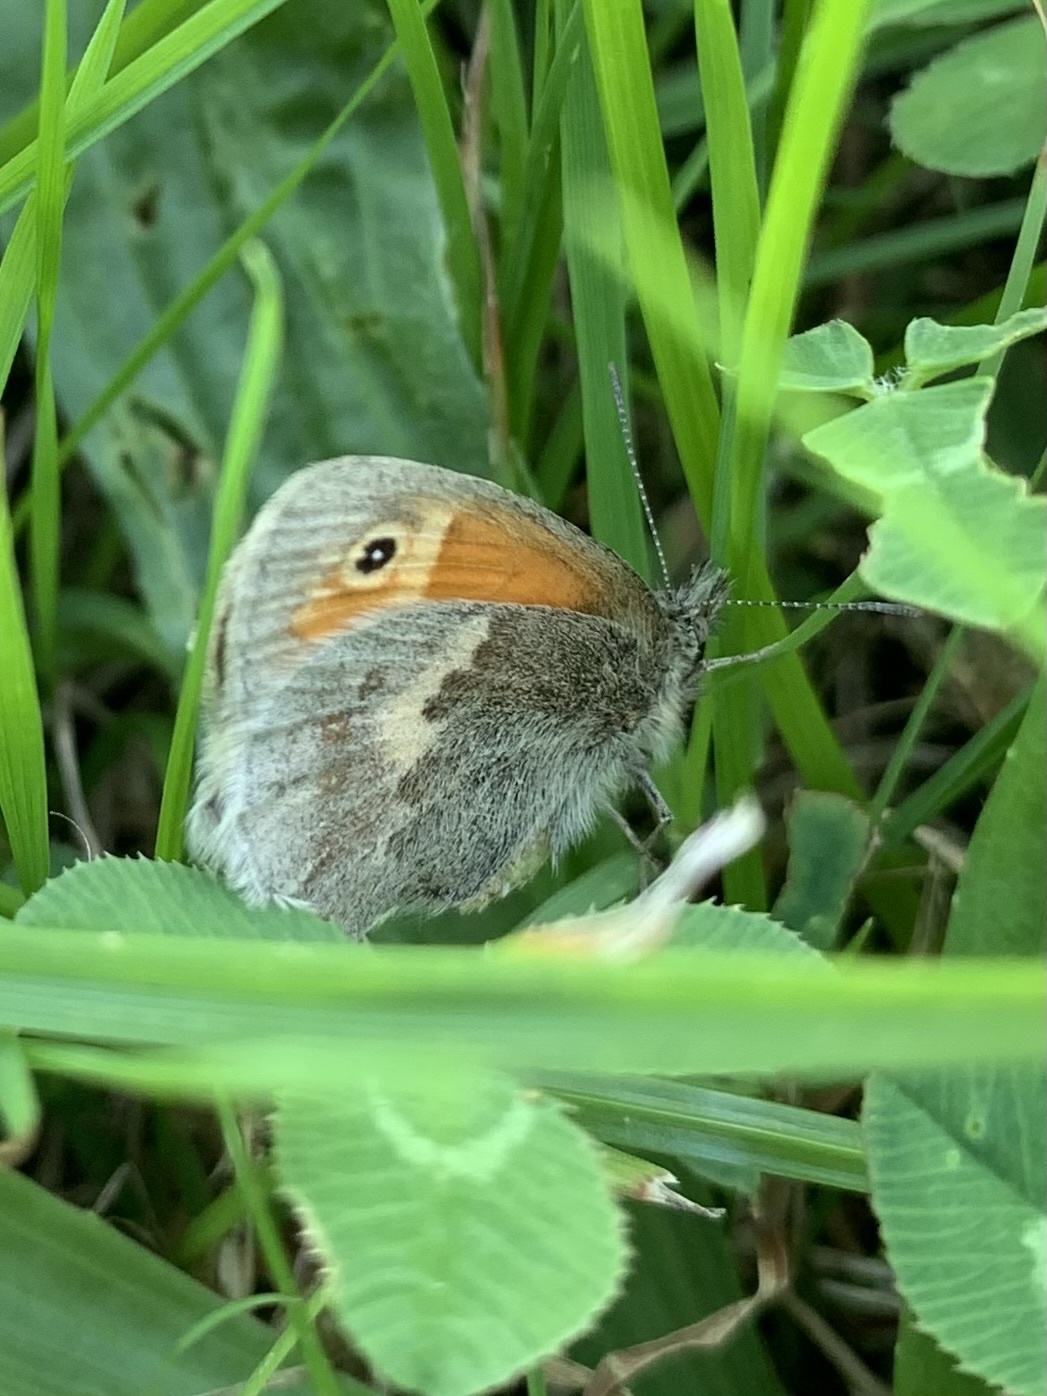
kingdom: Animalia
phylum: Arthropoda
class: Insecta
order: Lepidoptera
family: Nymphalidae
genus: Coenonympha
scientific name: Coenonympha pamphilus
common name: Small heath
